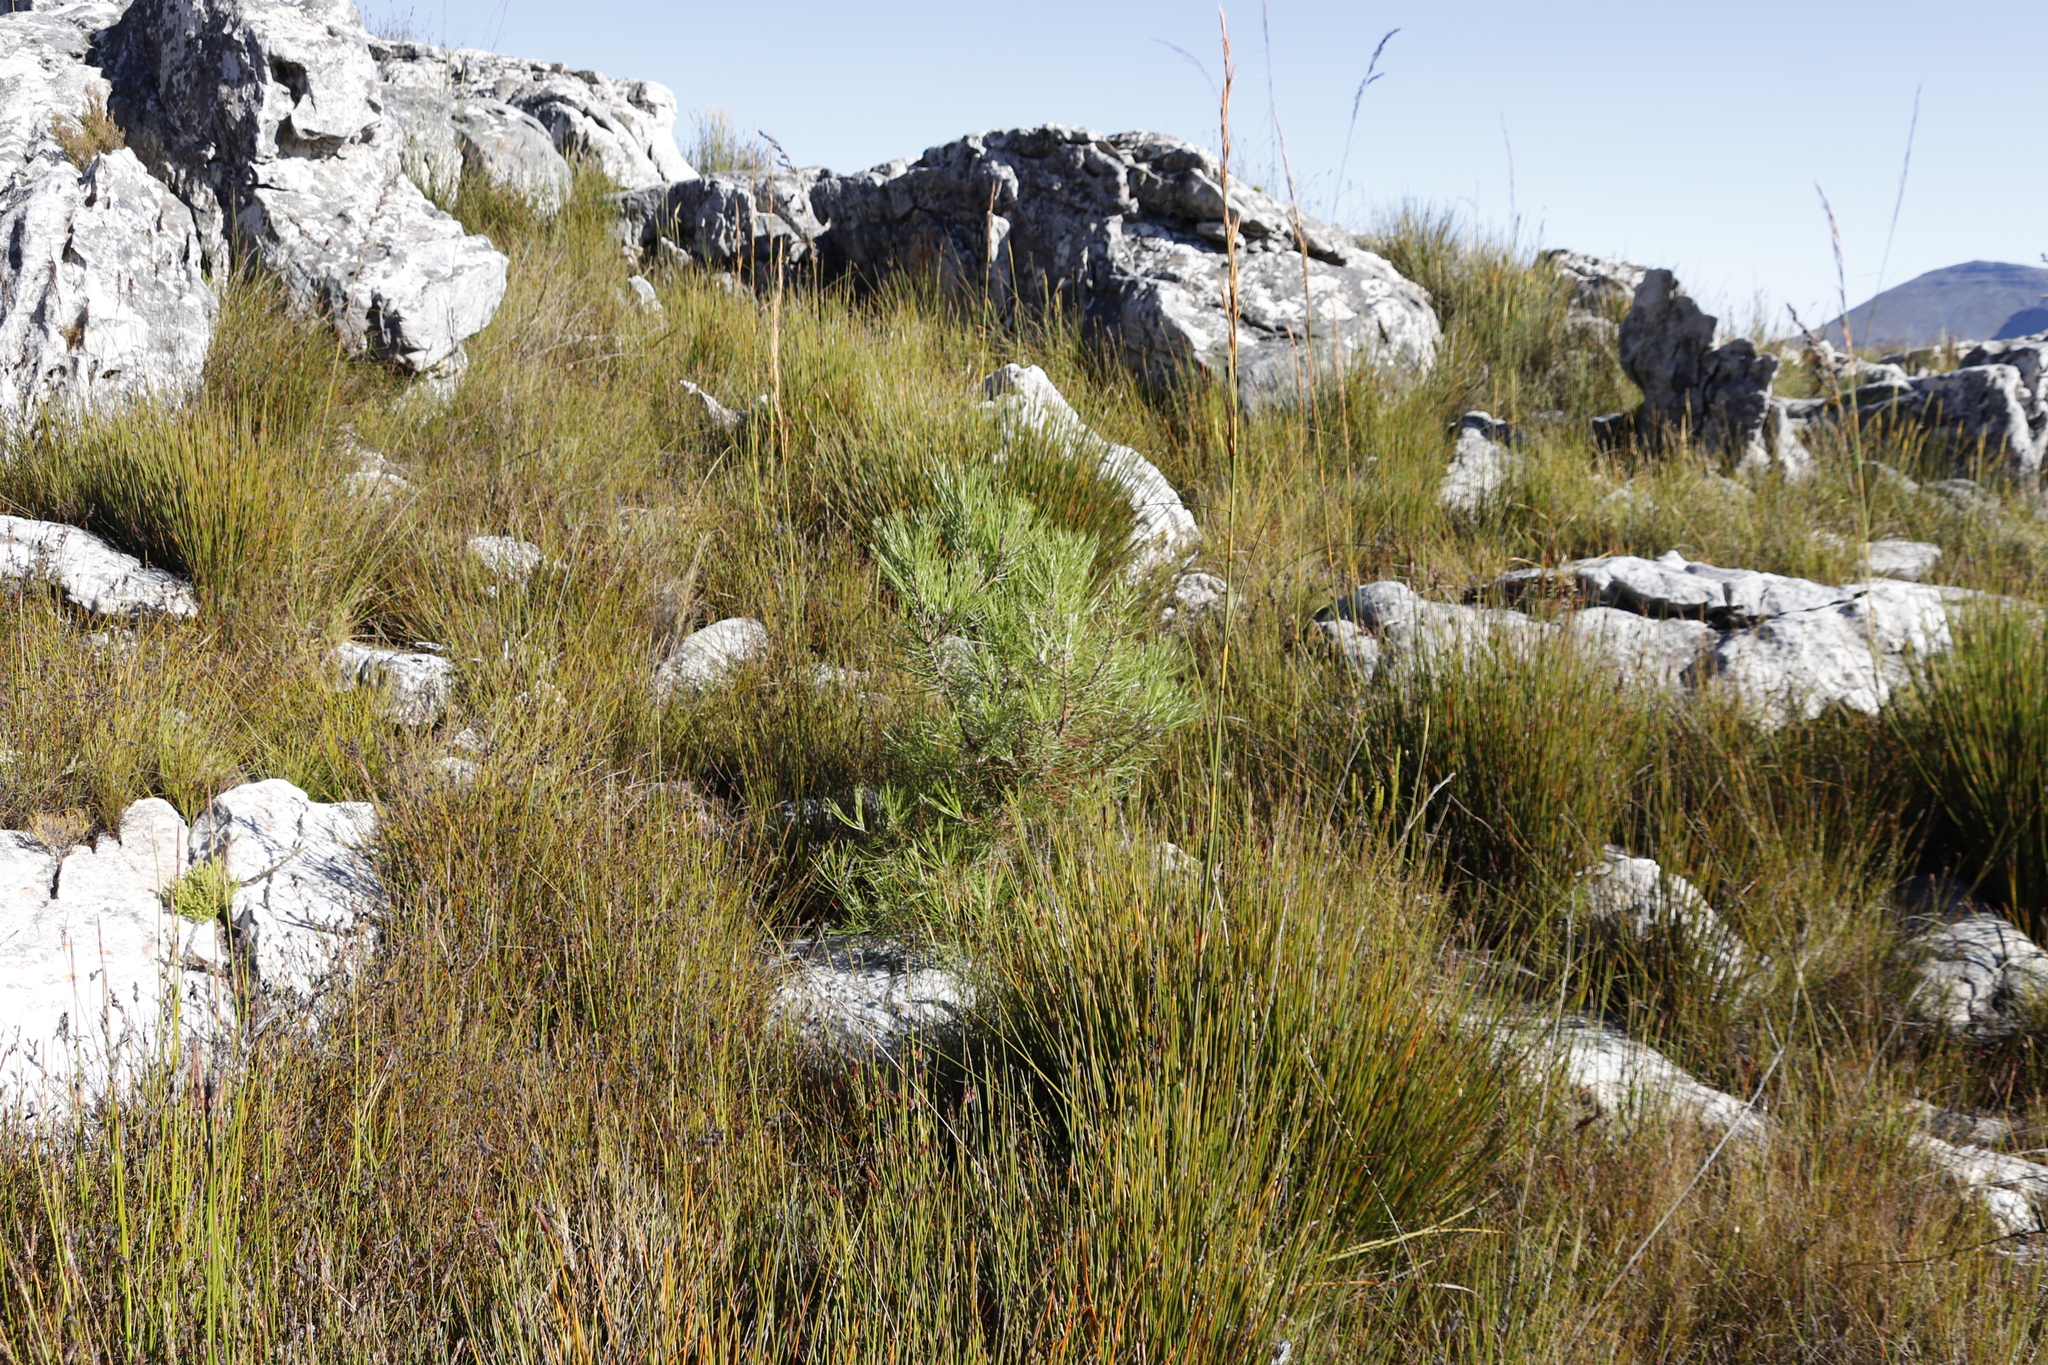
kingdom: Plantae
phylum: Tracheophyta
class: Pinopsida
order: Pinales
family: Pinaceae
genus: Pinus
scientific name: Pinus pinaster
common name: Maritime pine
